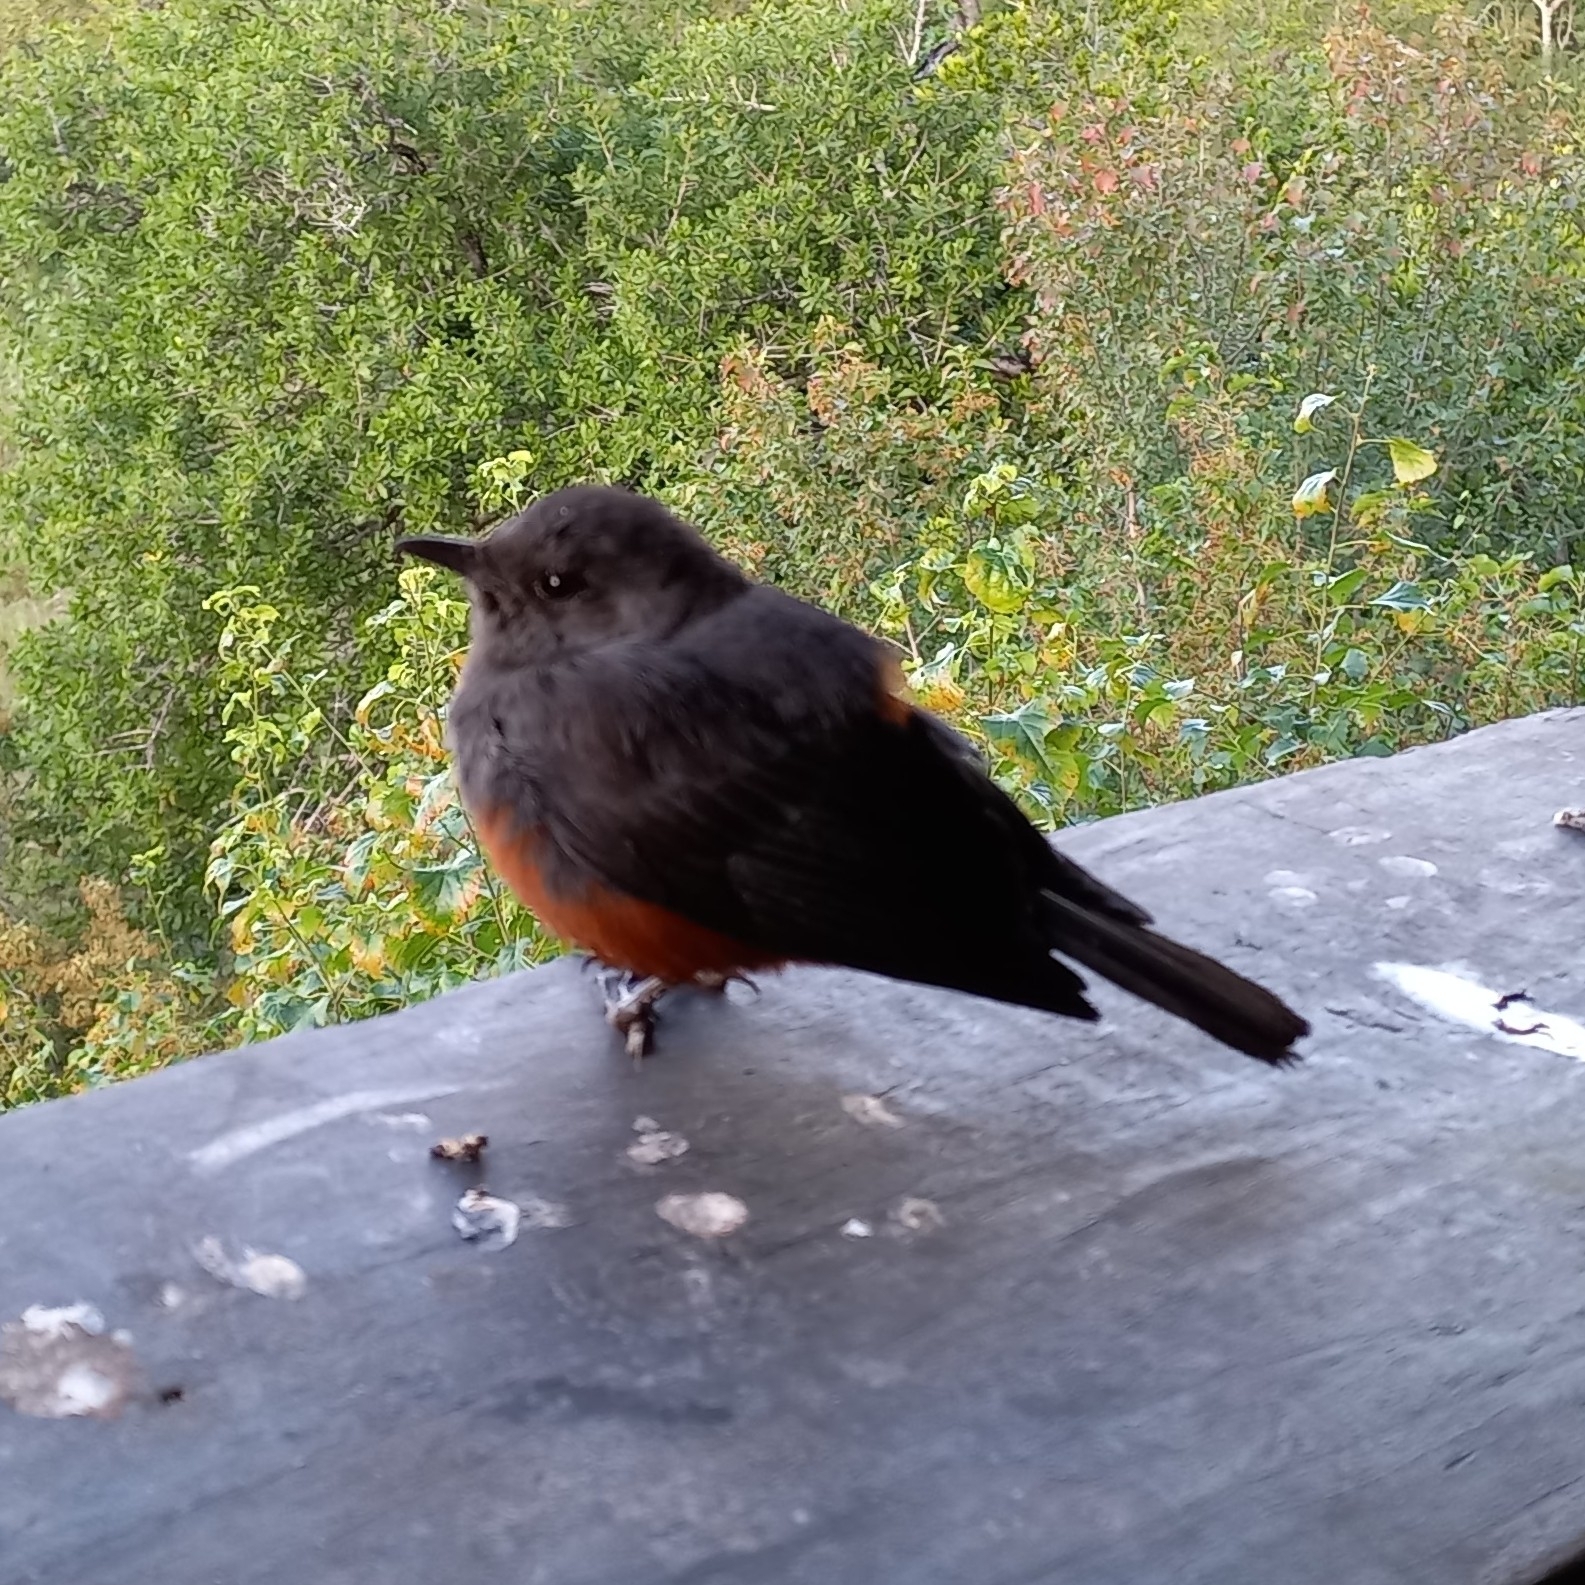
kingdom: Animalia
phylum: Chordata
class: Aves
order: Passeriformes
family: Muscicapidae
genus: Thamnolaea
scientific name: Thamnolaea cinnamomeiventris
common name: Mocking cliff chat
